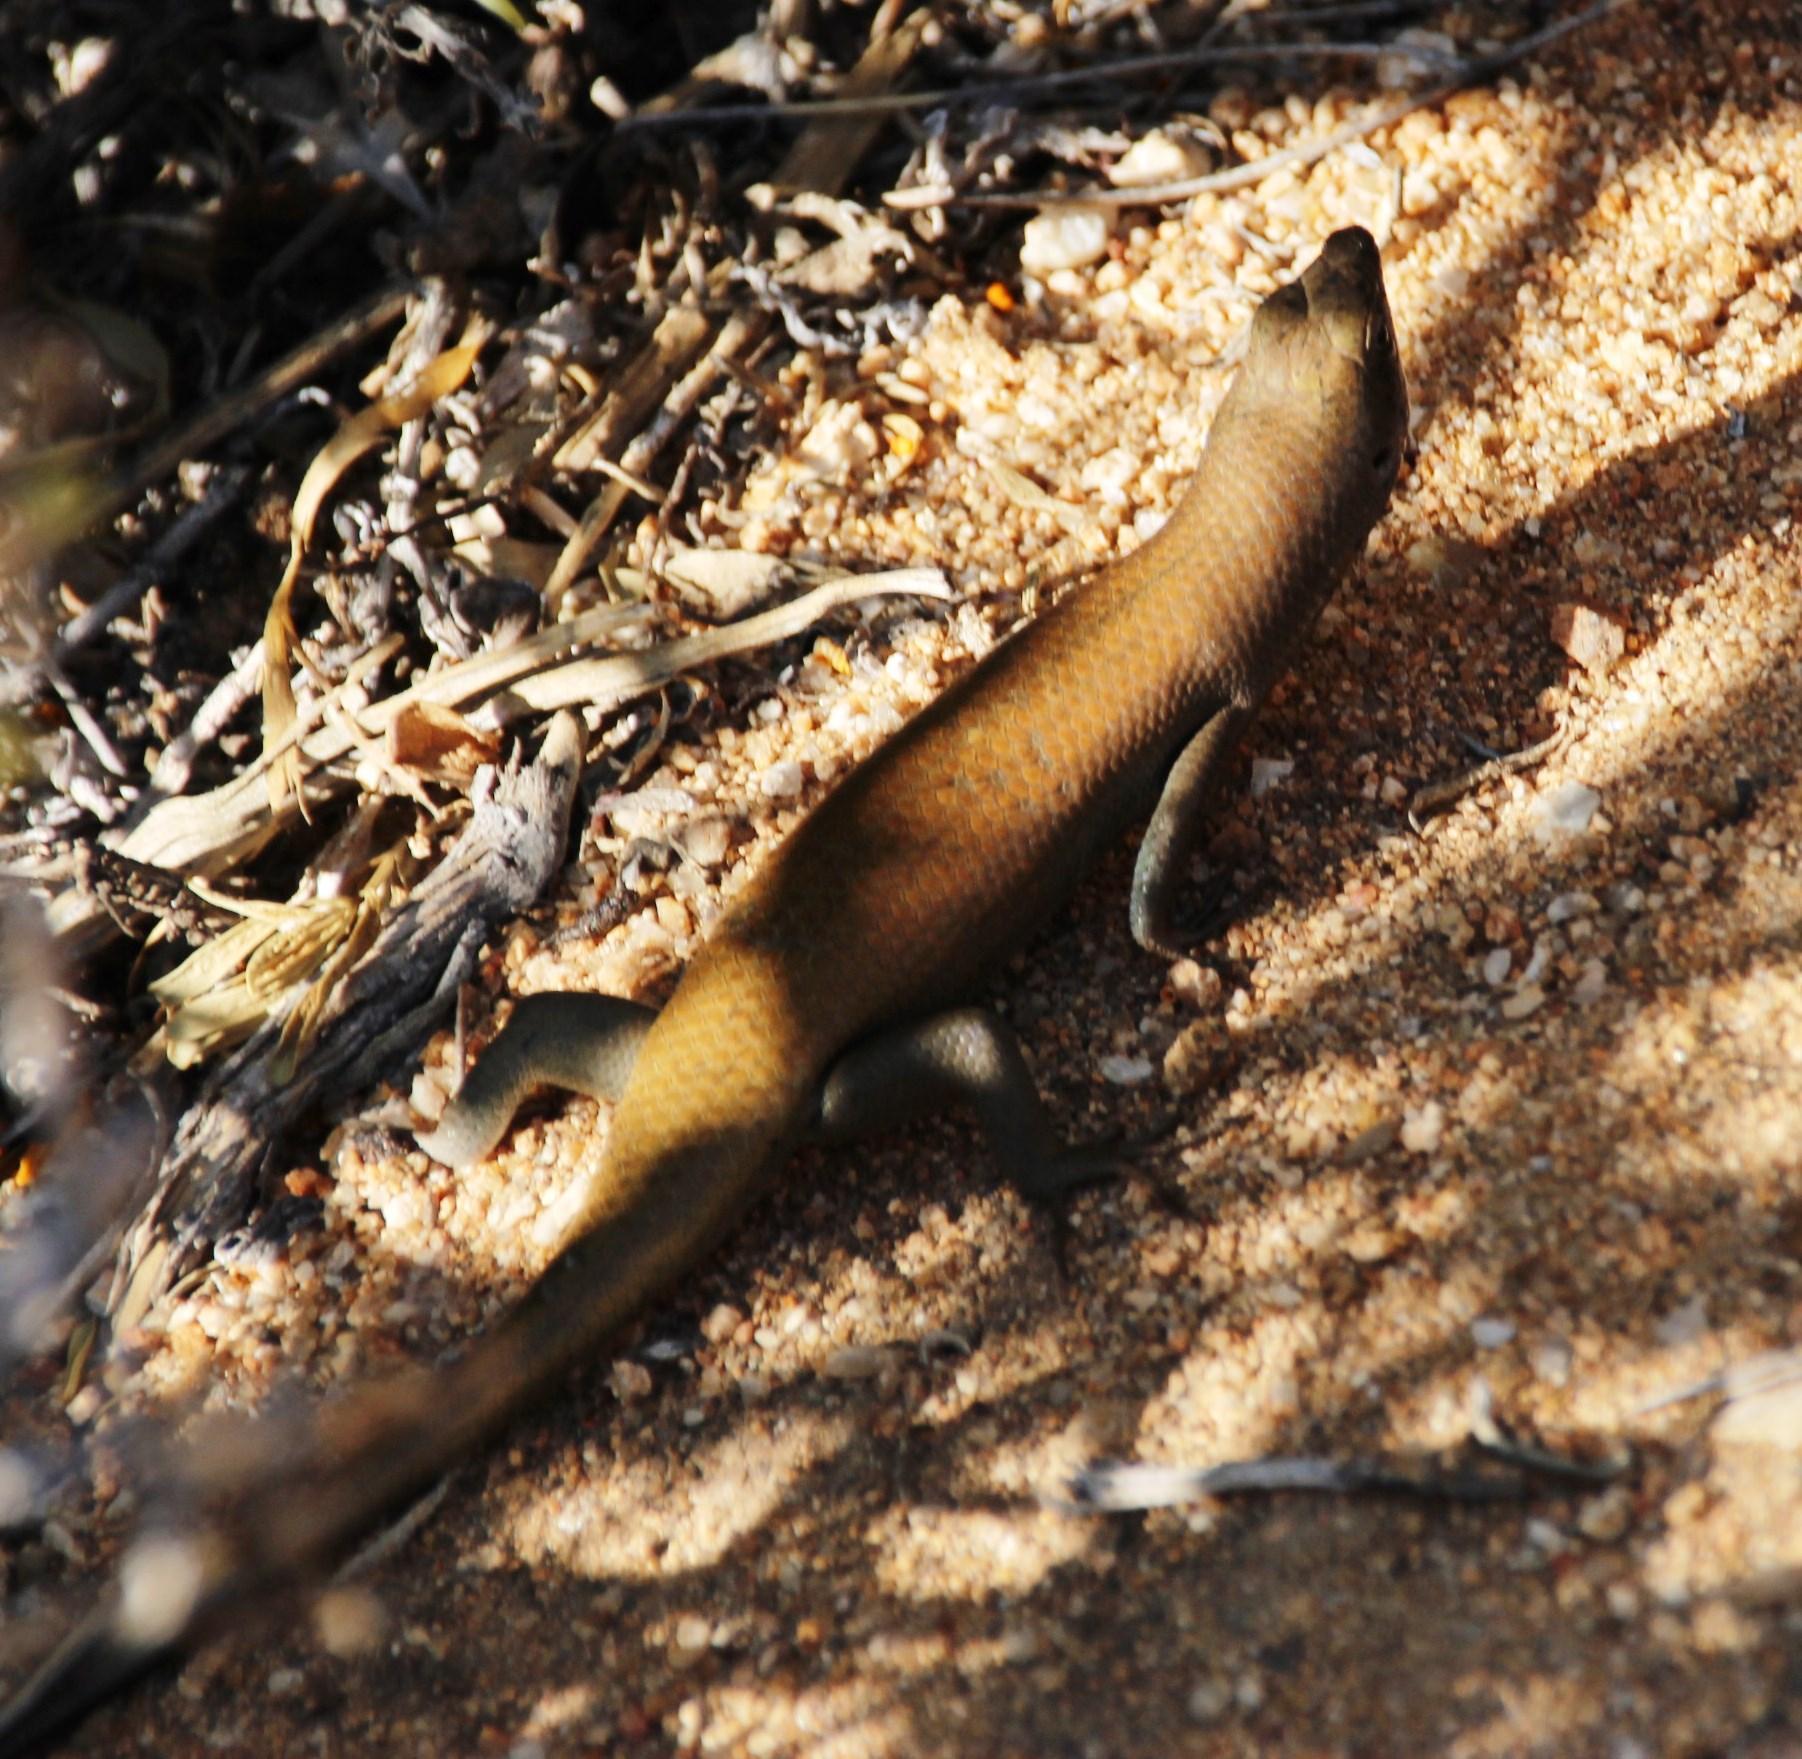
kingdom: Animalia
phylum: Chordata
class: Squamata
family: Scincidae
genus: Trachylepis
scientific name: Trachylepis sulcata
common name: Western rock skink
